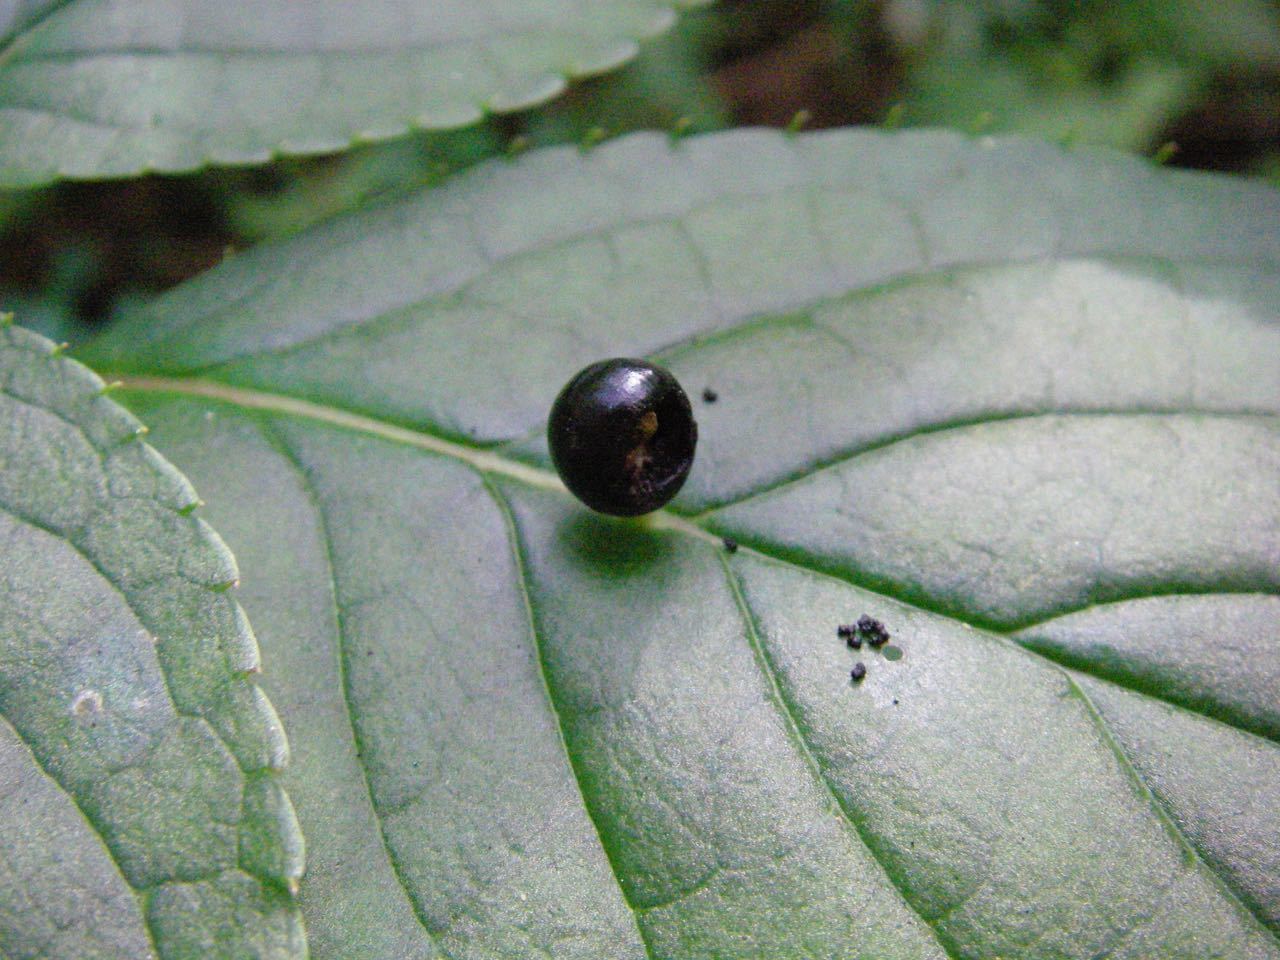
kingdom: Plantae
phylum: Tracheophyta
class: Magnoliopsida
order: Aquifoliales
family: Helwingiaceae
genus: Helwingia
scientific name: Helwingia japonica
